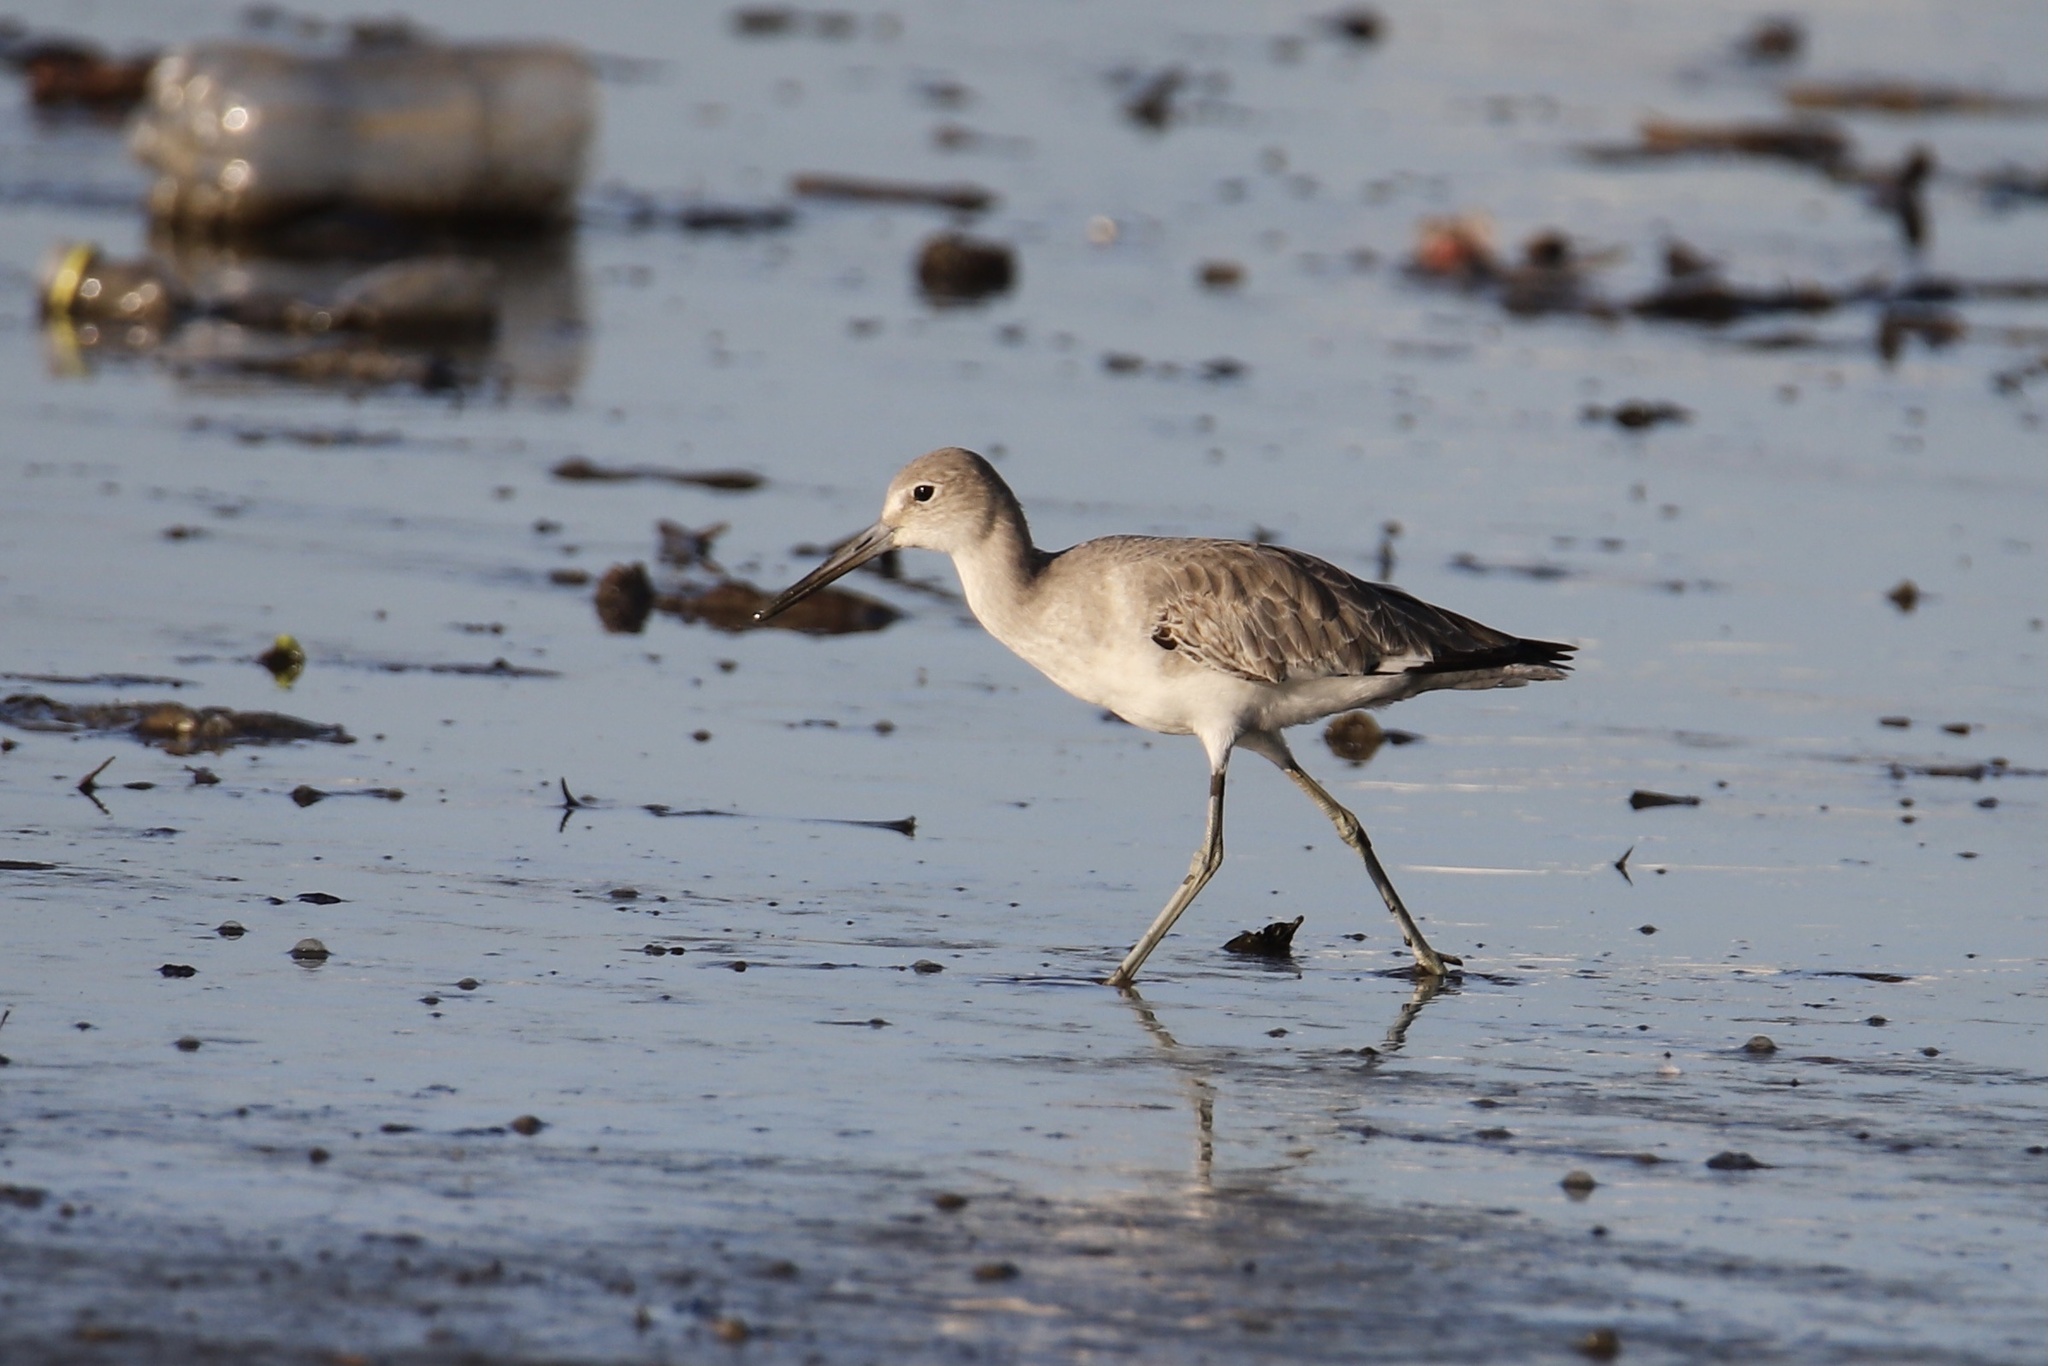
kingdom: Animalia
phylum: Chordata
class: Aves
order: Charadriiformes
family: Scolopacidae
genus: Tringa
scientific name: Tringa semipalmata
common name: Willet
